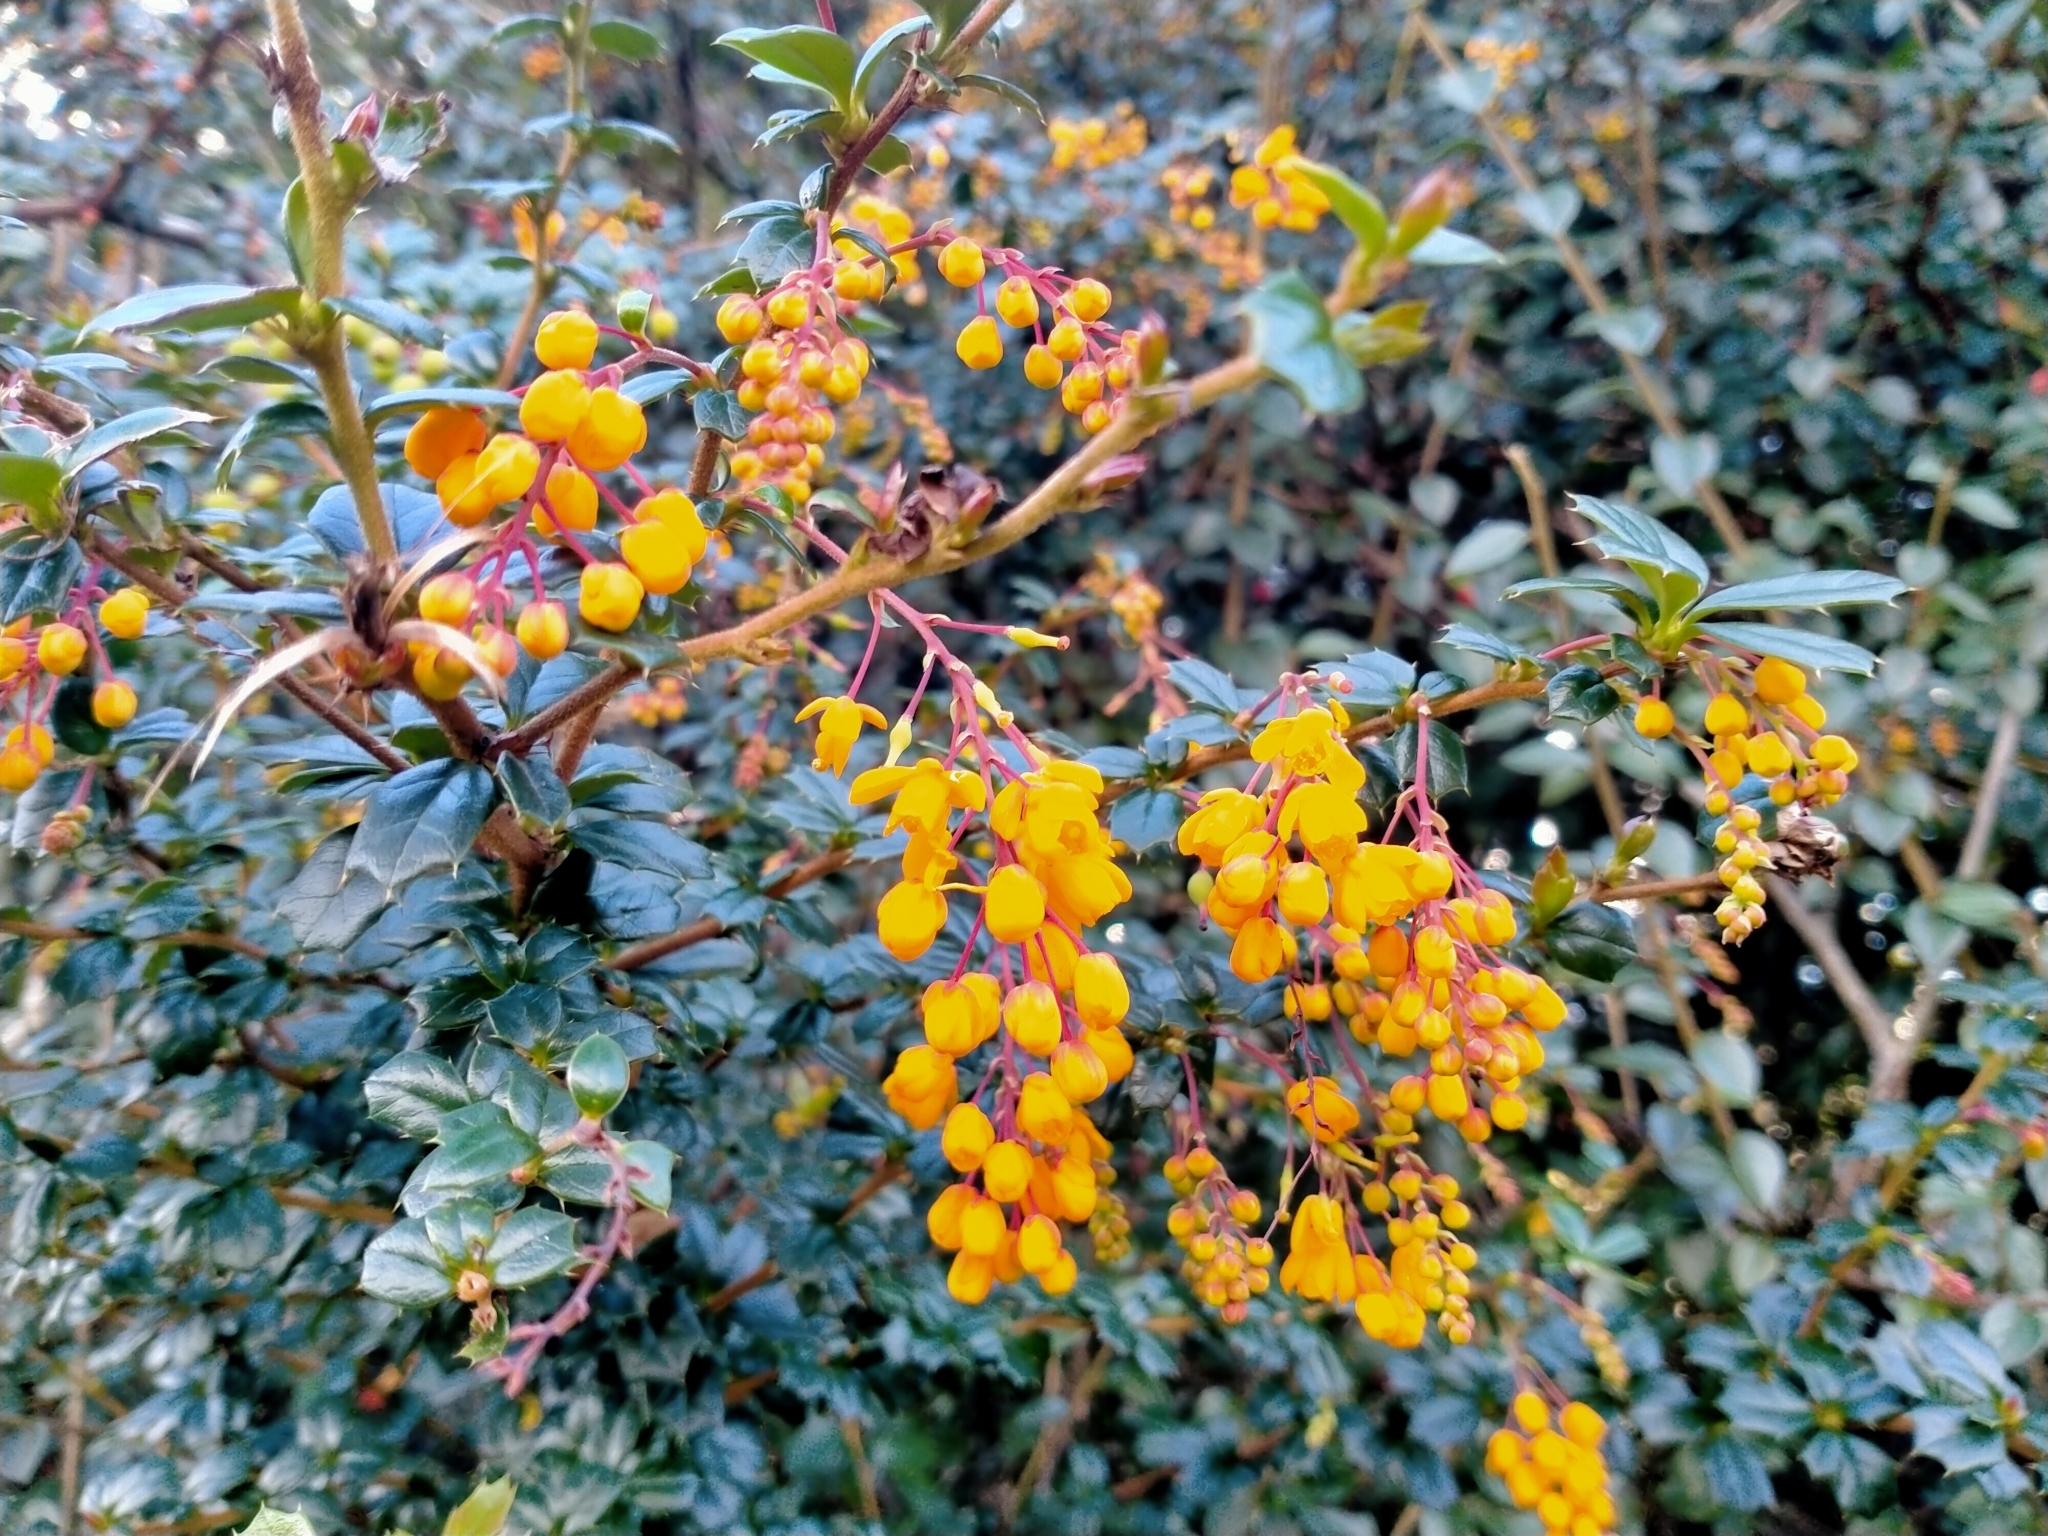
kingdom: Plantae
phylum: Tracheophyta
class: Magnoliopsida
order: Ranunculales
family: Berberidaceae
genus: Berberis
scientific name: Berberis darwinii
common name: Darwin's barberry
